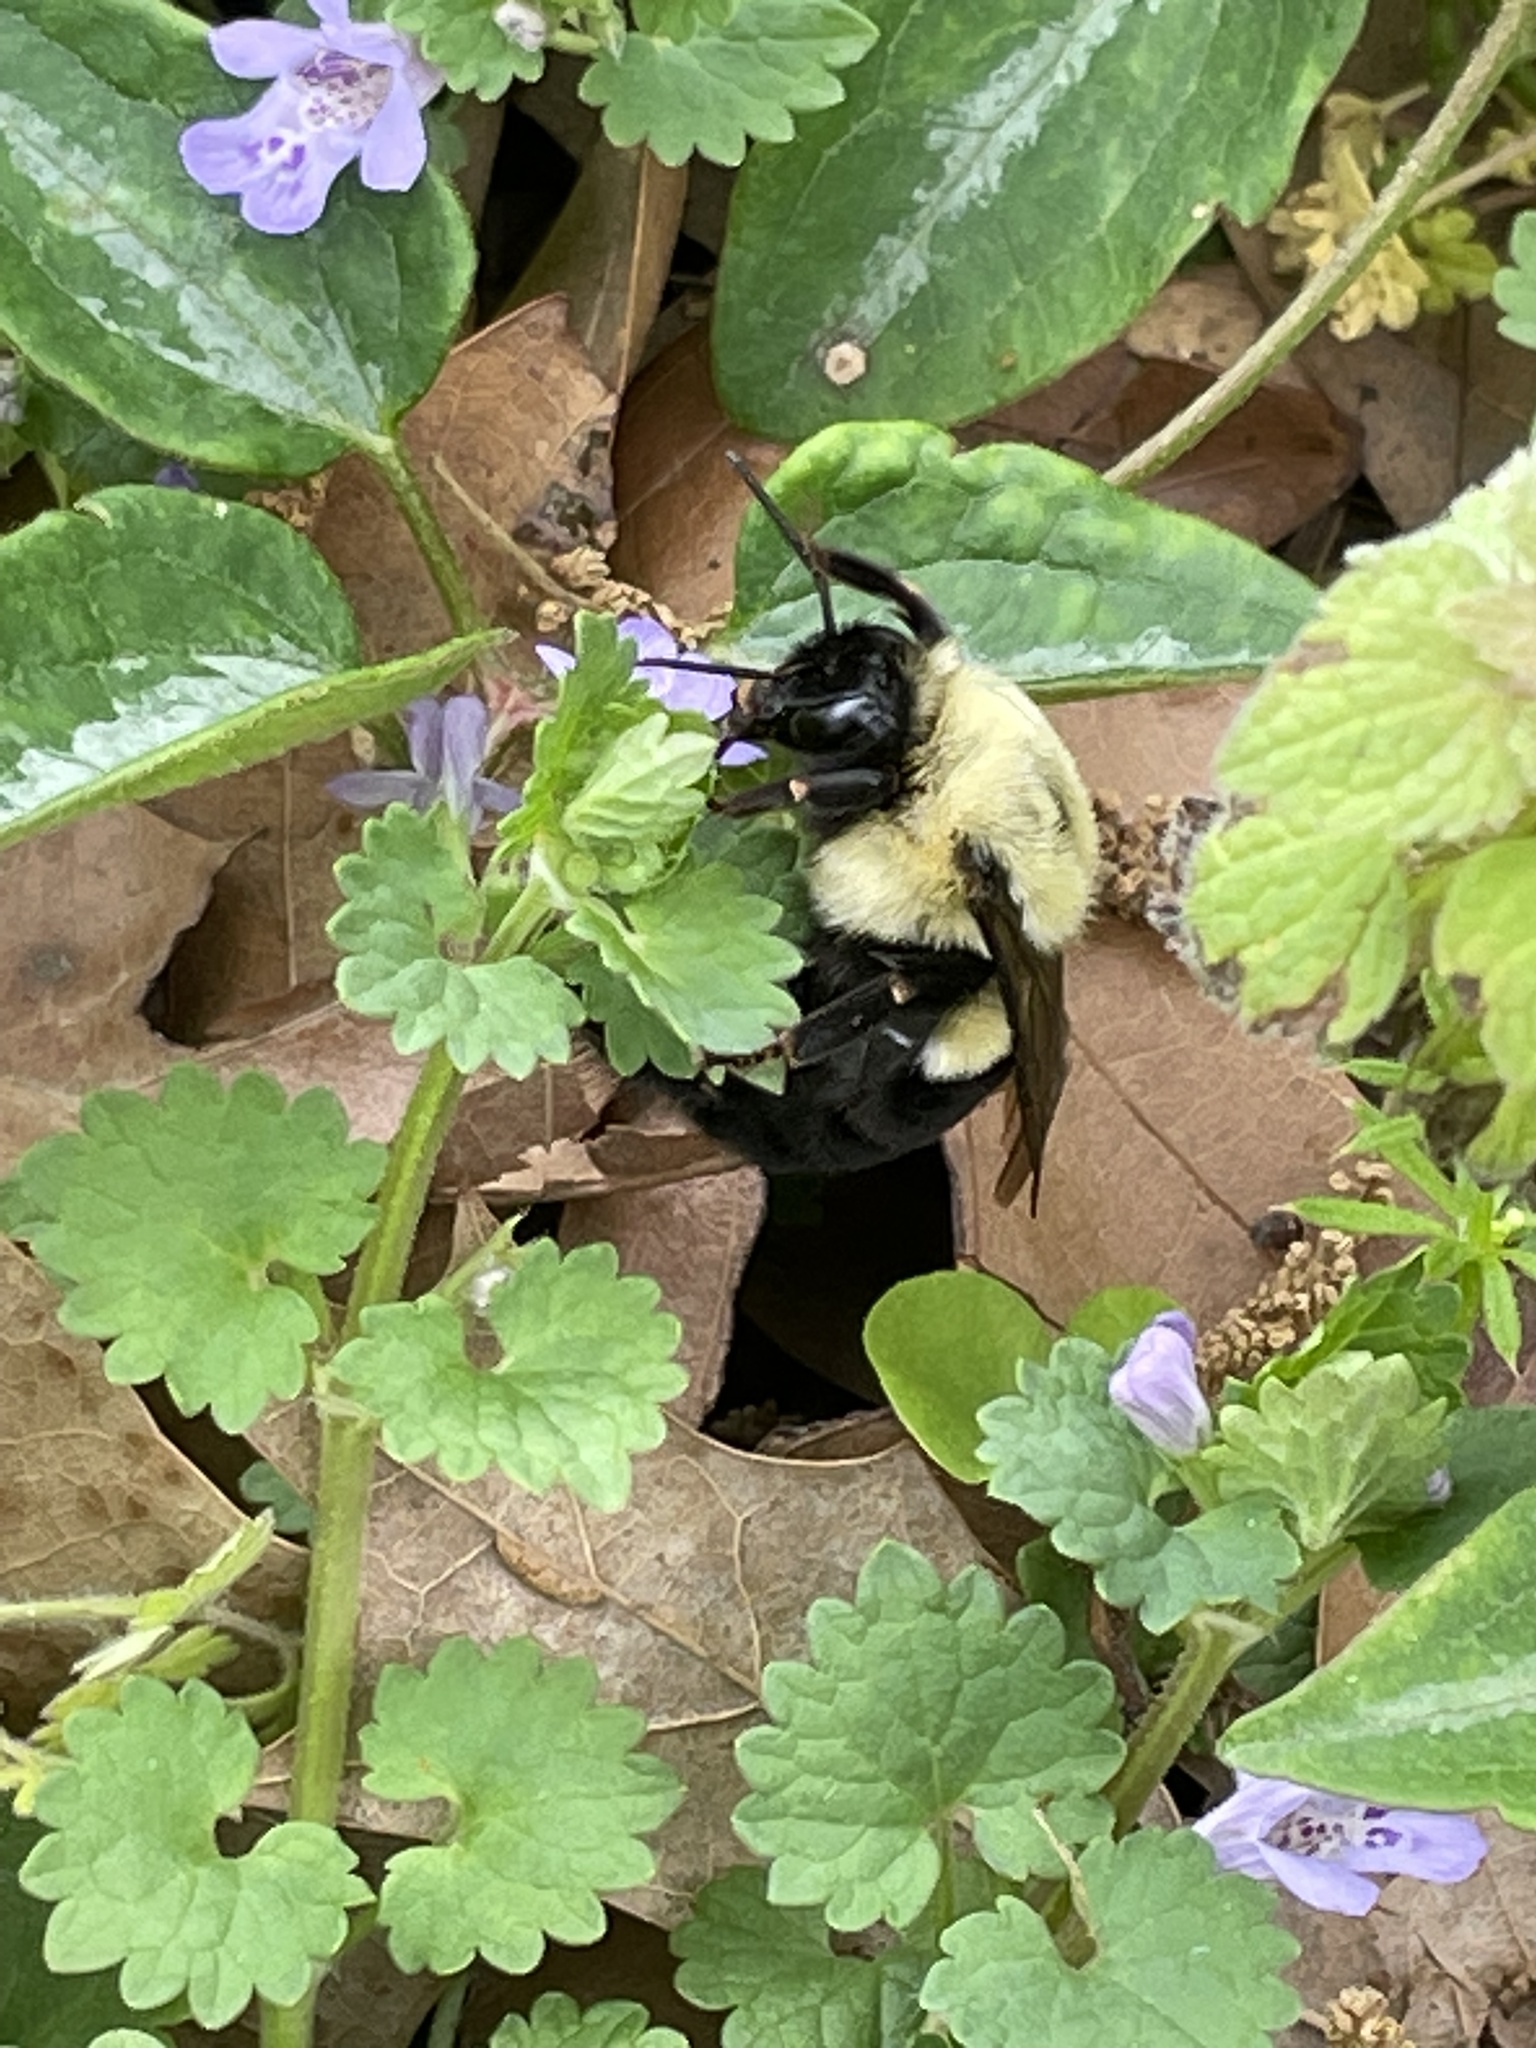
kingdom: Animalia
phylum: Arthropoda
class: Insecta
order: Hymenoptera
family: Apidae
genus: Bombus
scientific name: Bombus impatiens
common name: Common eastern bumble bee
